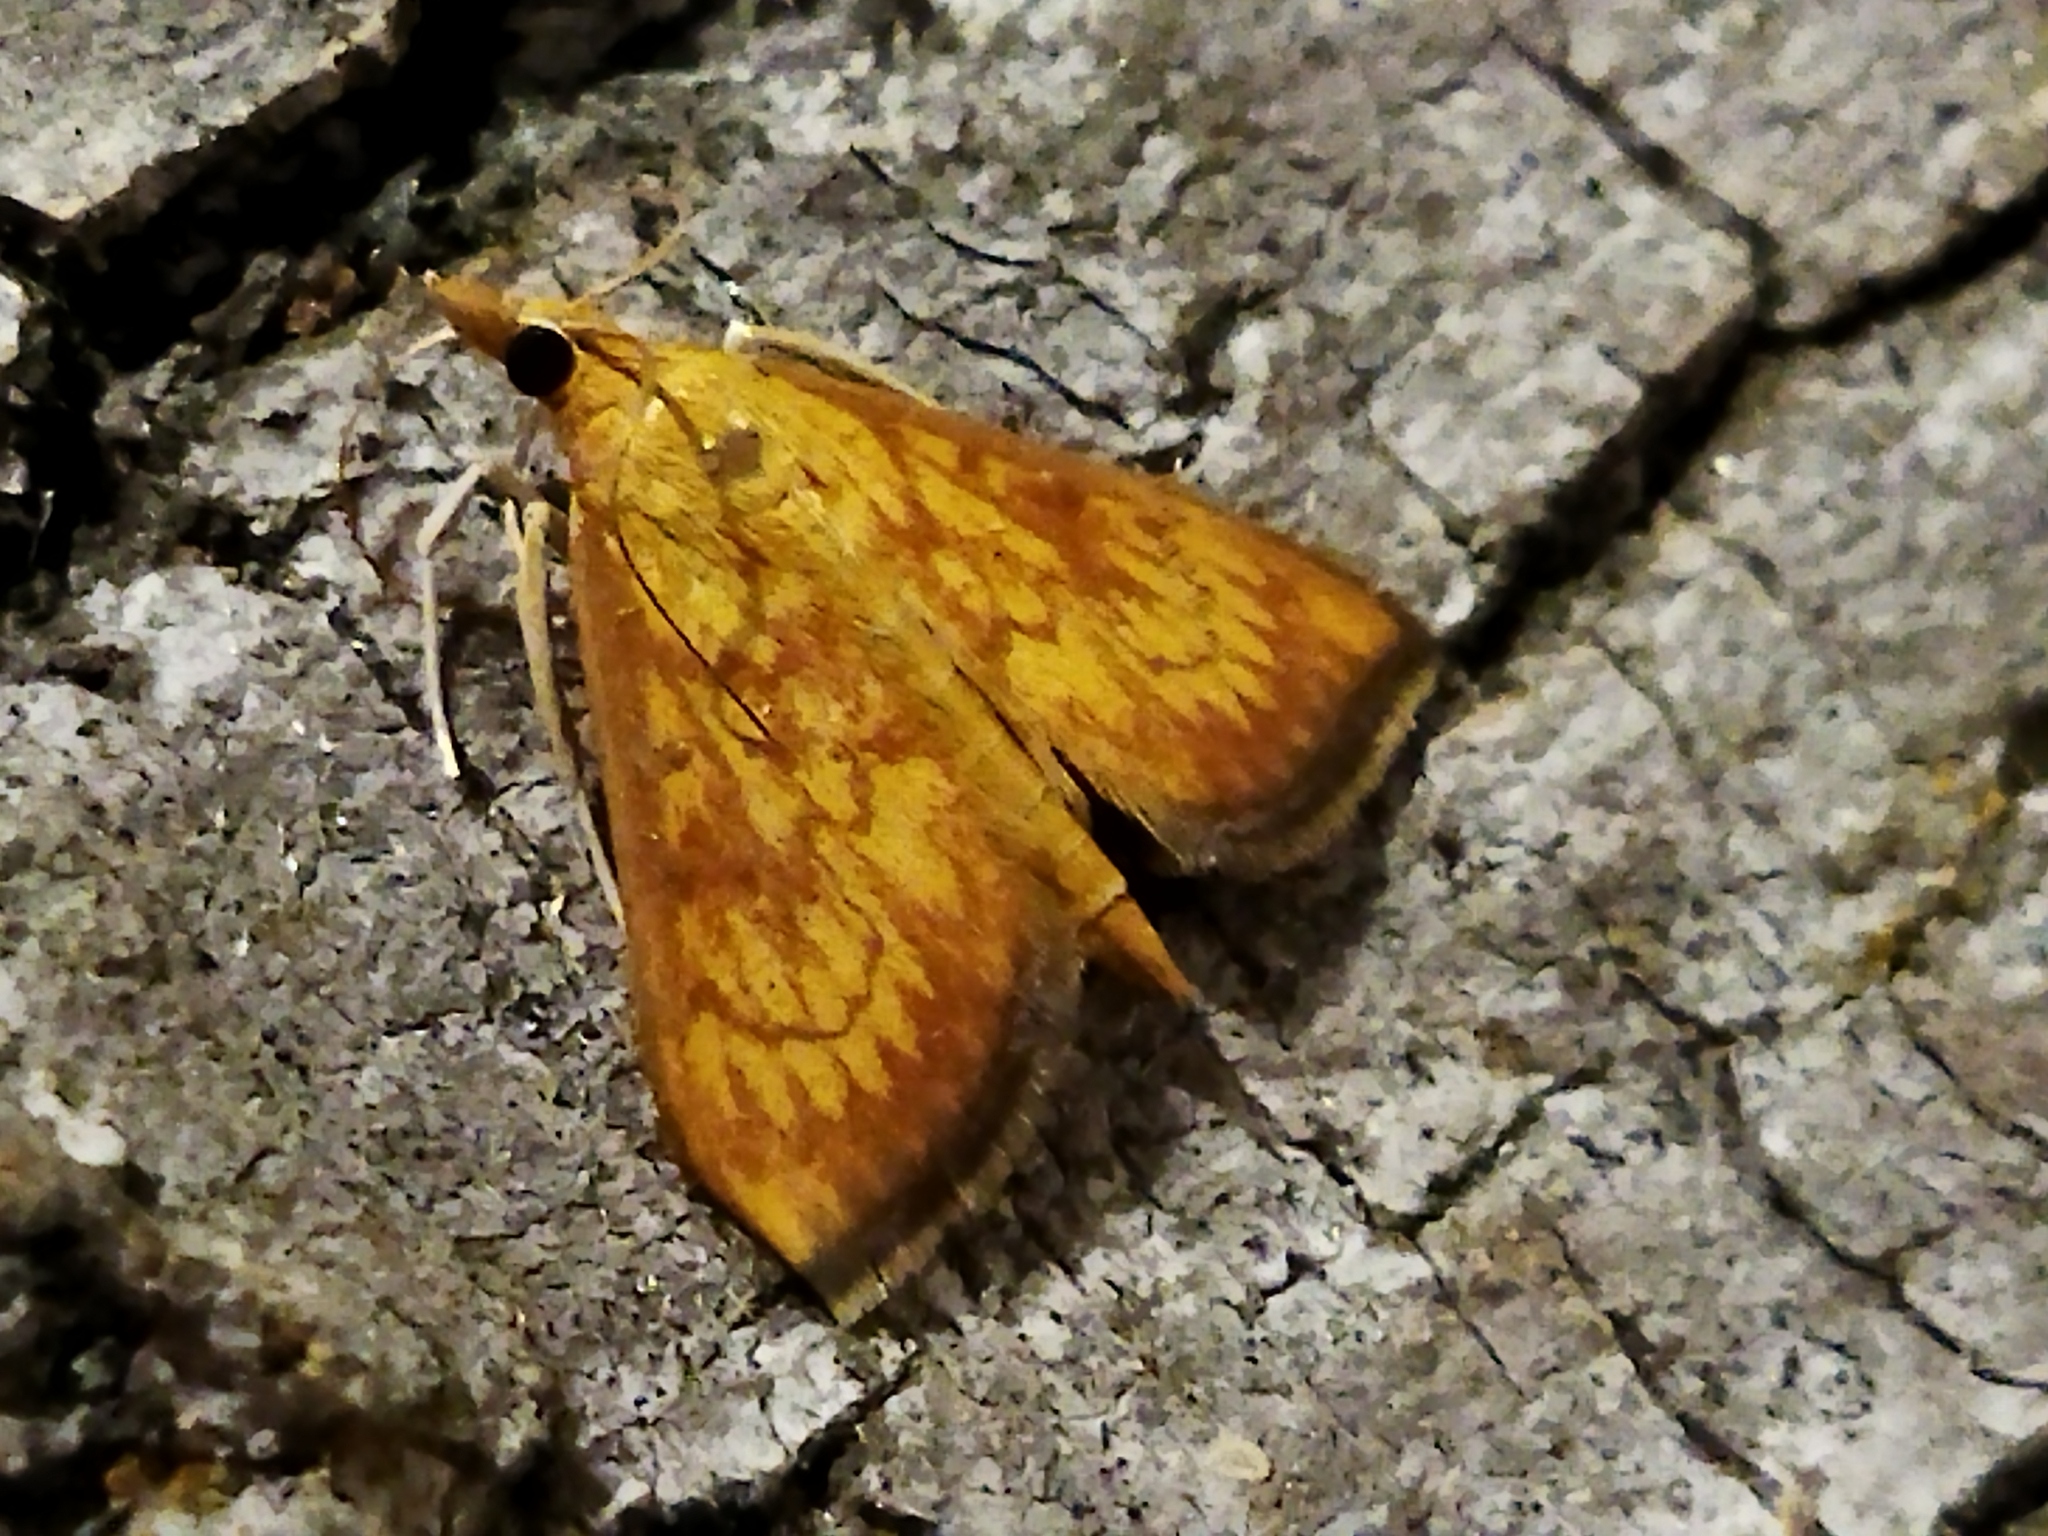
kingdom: Animalia
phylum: Arthropoda
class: Insecta
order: Lepidoptera
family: Crambidae
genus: Ecpyrrhorrhoe
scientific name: Ecpyrrhorrhoe rubiginalis
